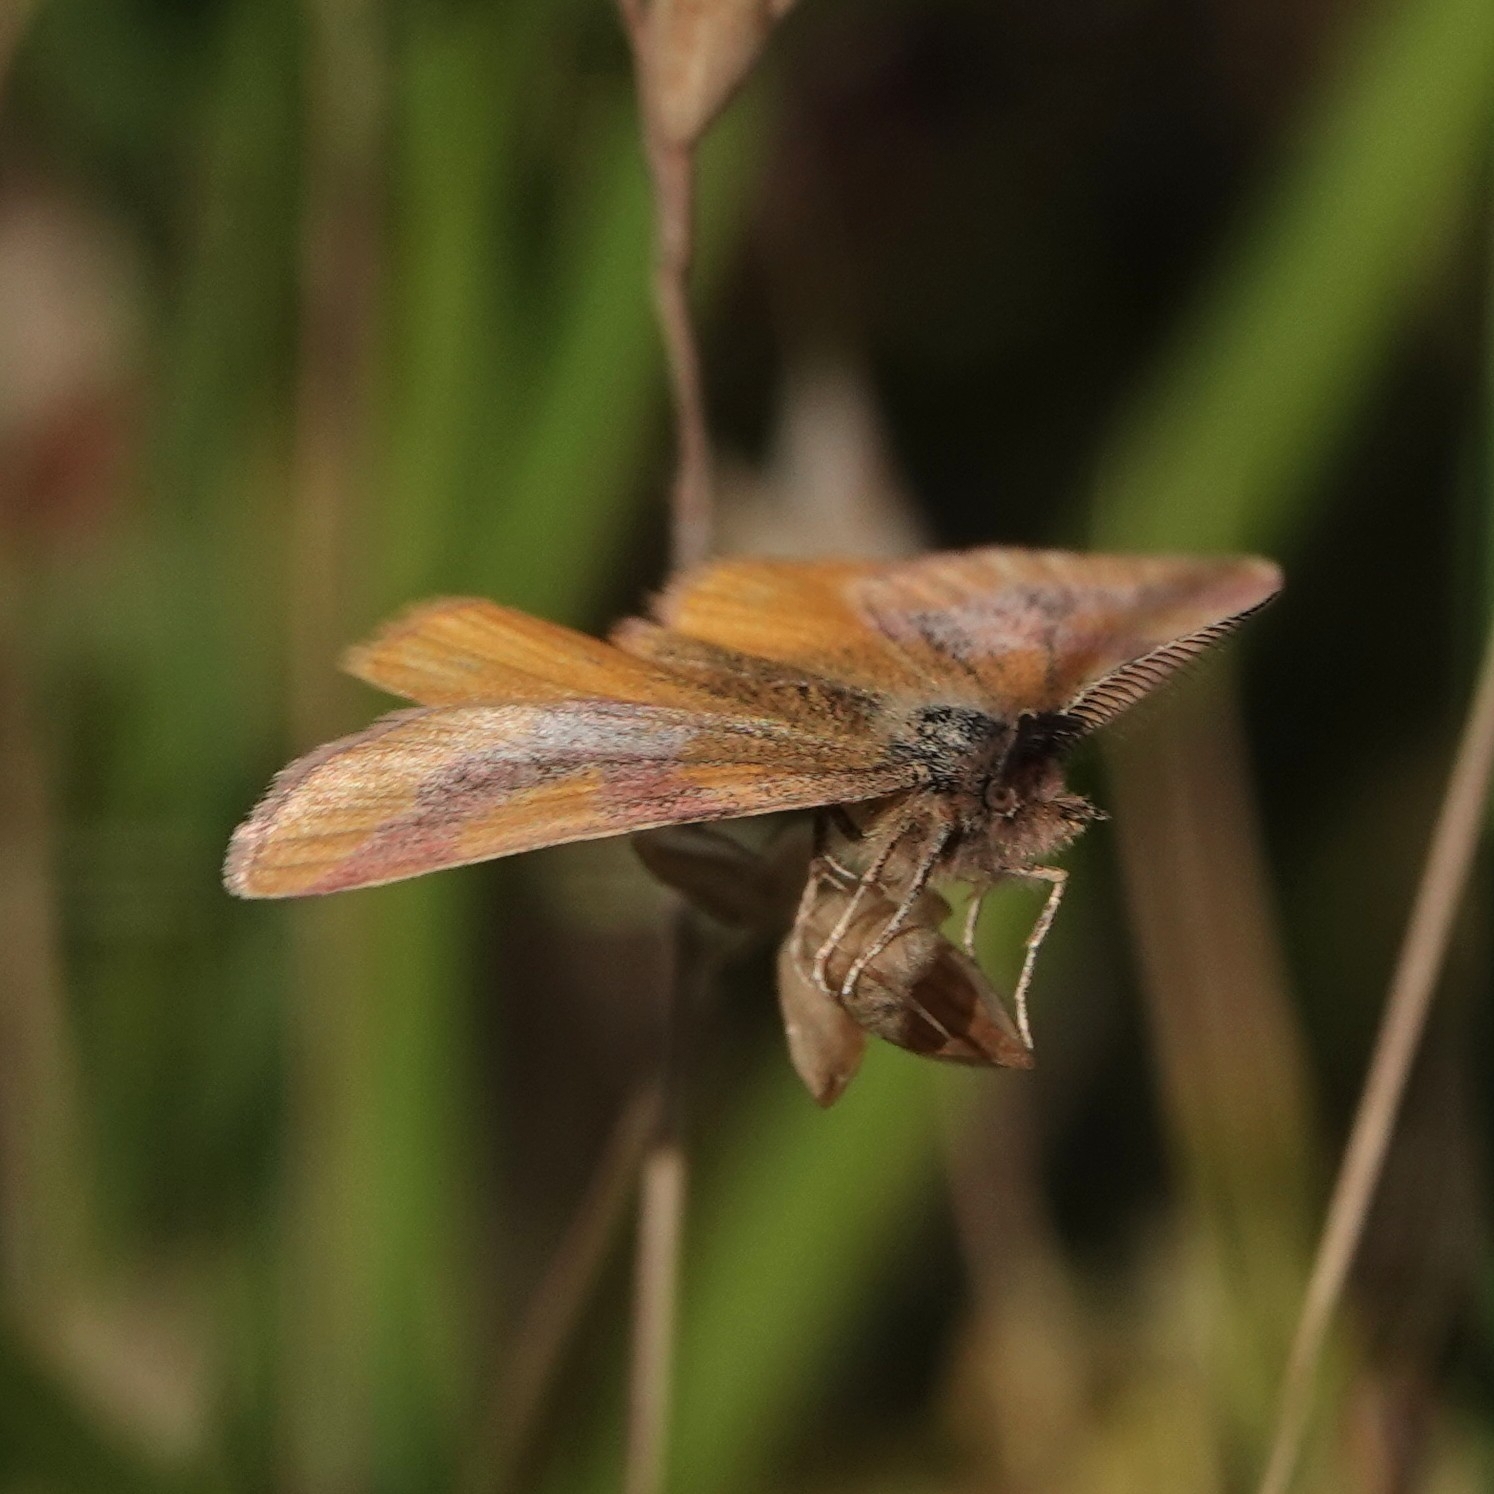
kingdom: Animalia
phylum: Arthropoda
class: Insecta
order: Lepidoptera
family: Geometridae
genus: Lythria
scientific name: Lythria cruentaria
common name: Purple-barred yellow
